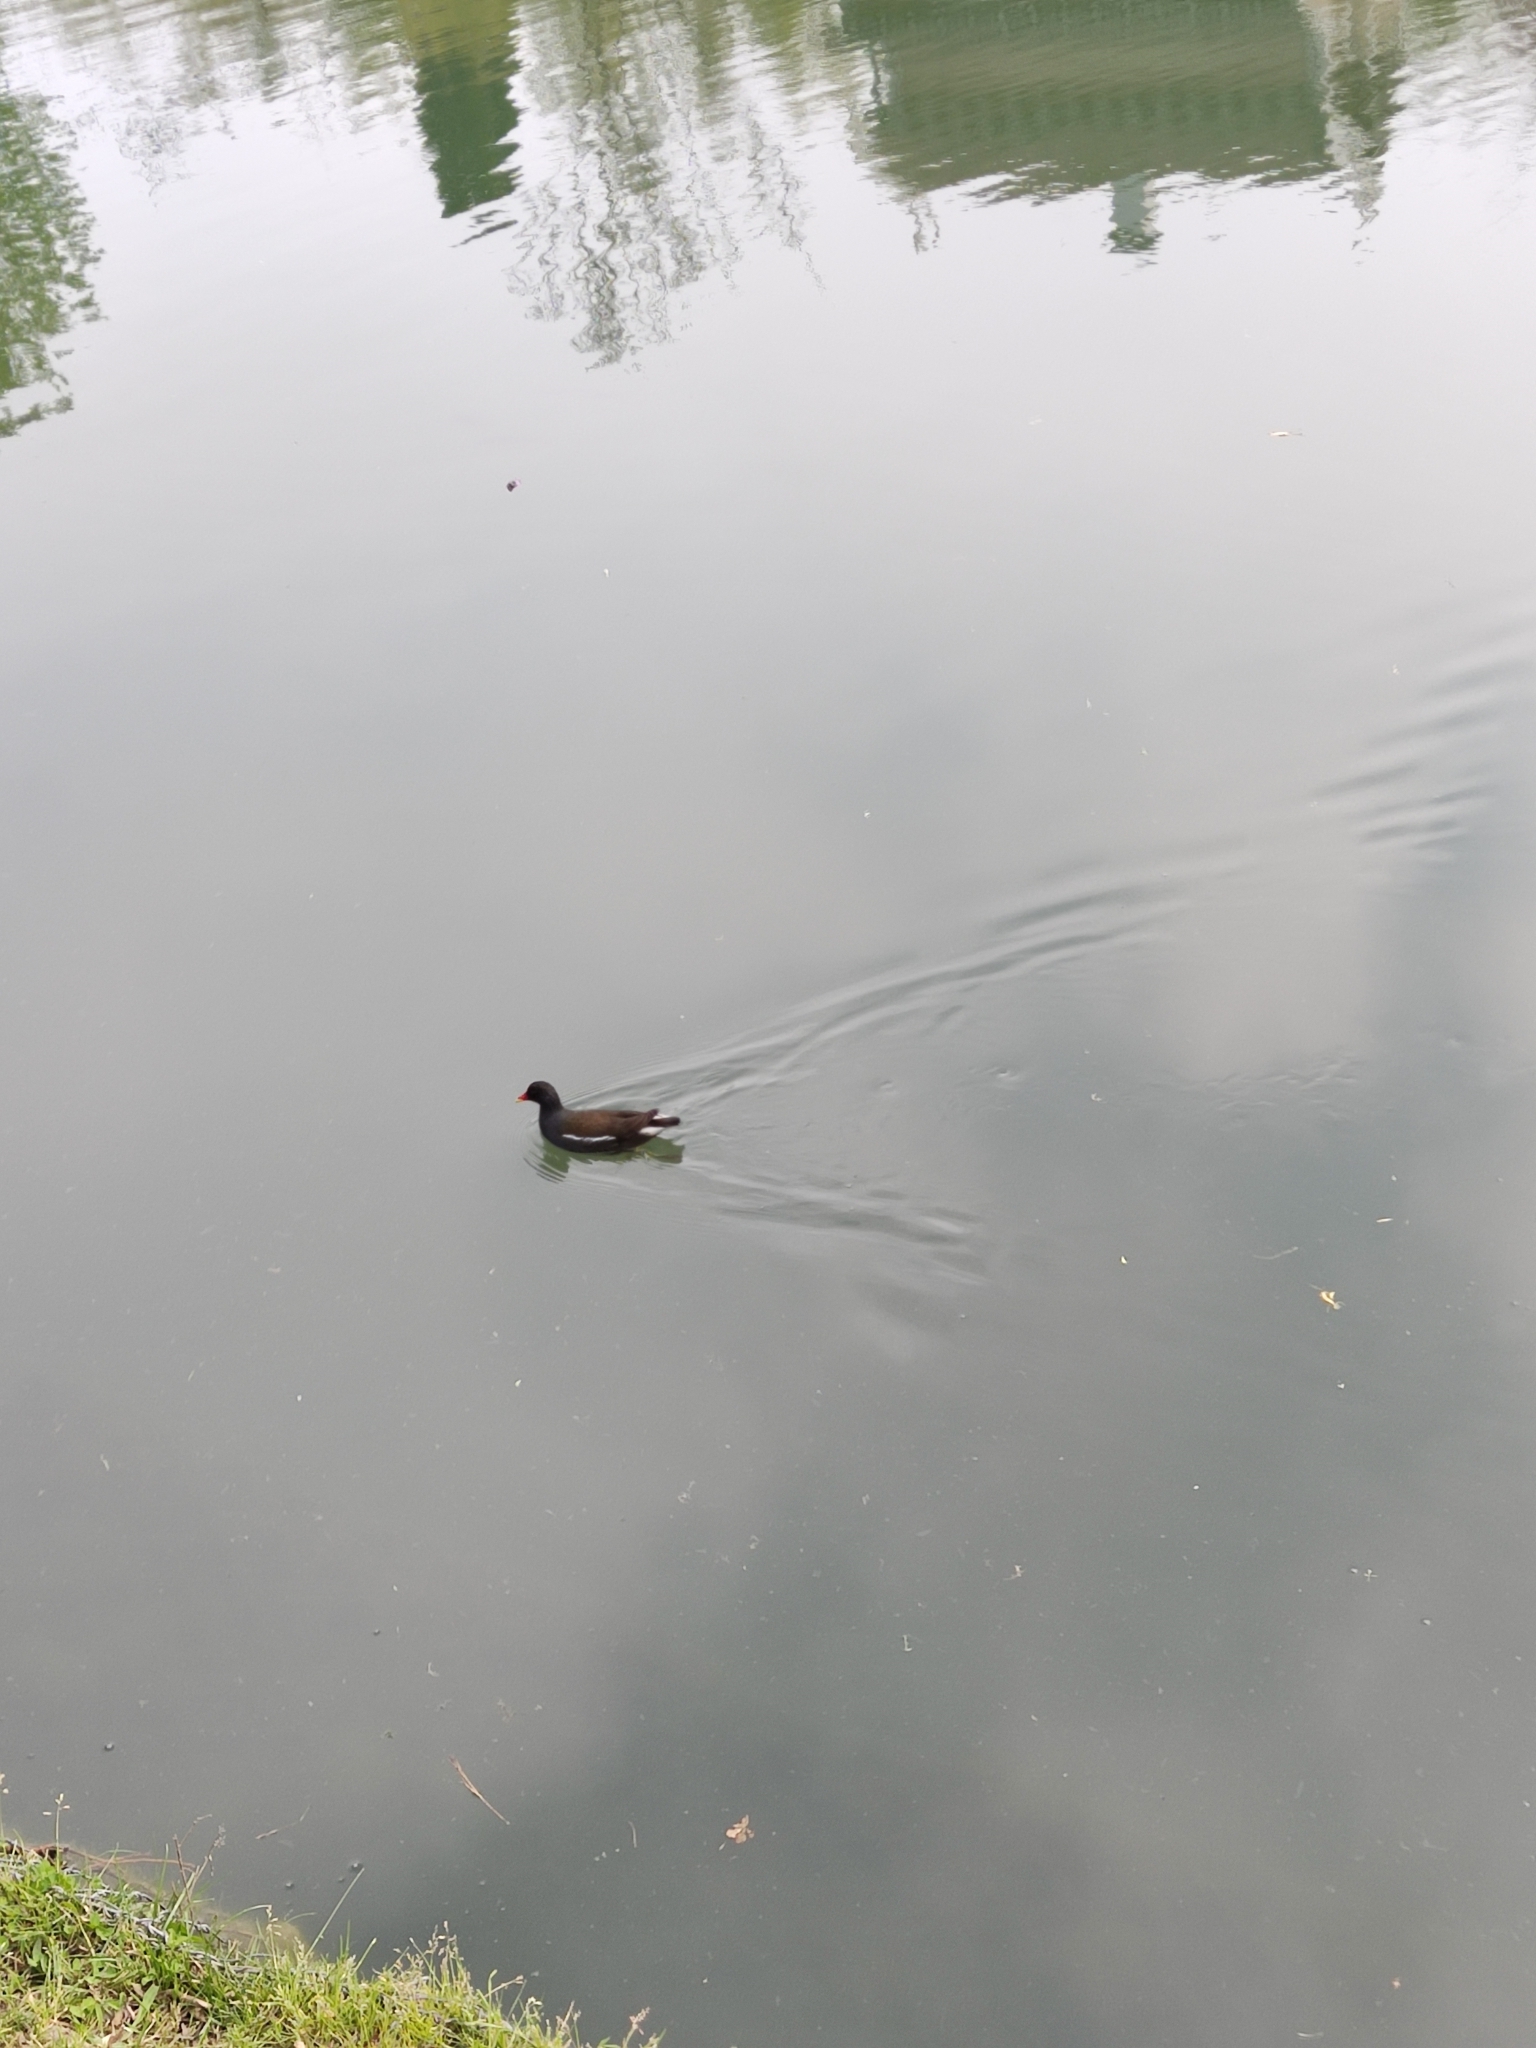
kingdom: Animalia
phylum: Chordata
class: Aves
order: Gruiformes
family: Rallidae
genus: Gallinula
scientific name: Gallinula chloropus
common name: Common moorhen
